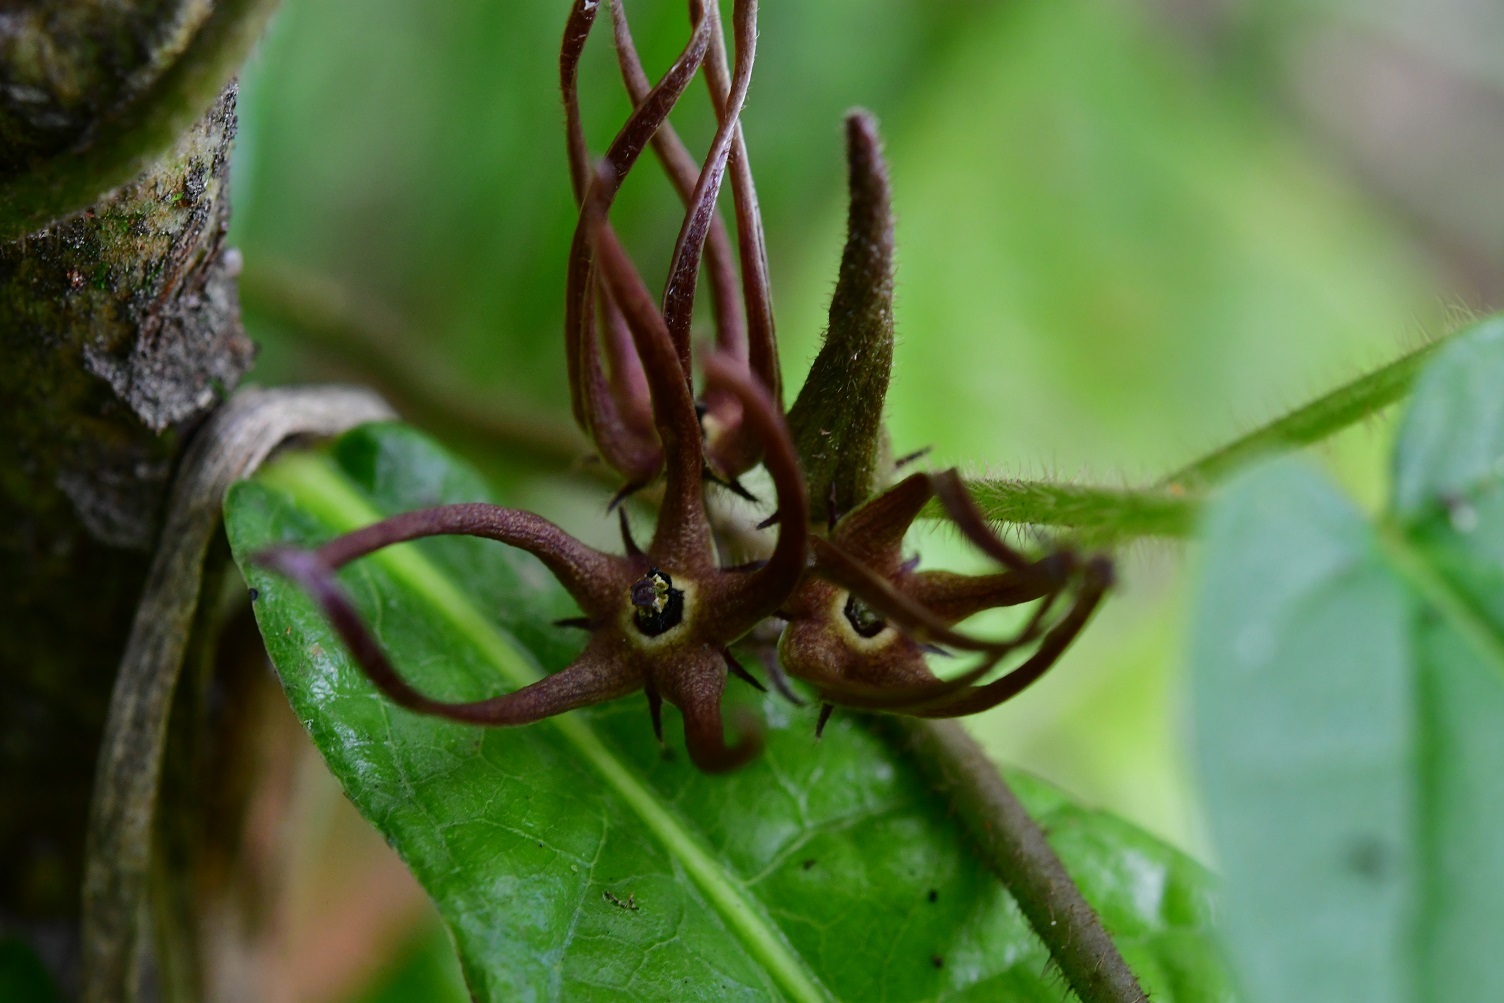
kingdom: Plantae
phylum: Tracheophyta
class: Magnoliopsida
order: Gentianales
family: Apocynaceae
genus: Matelea
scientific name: Matelea medusae
